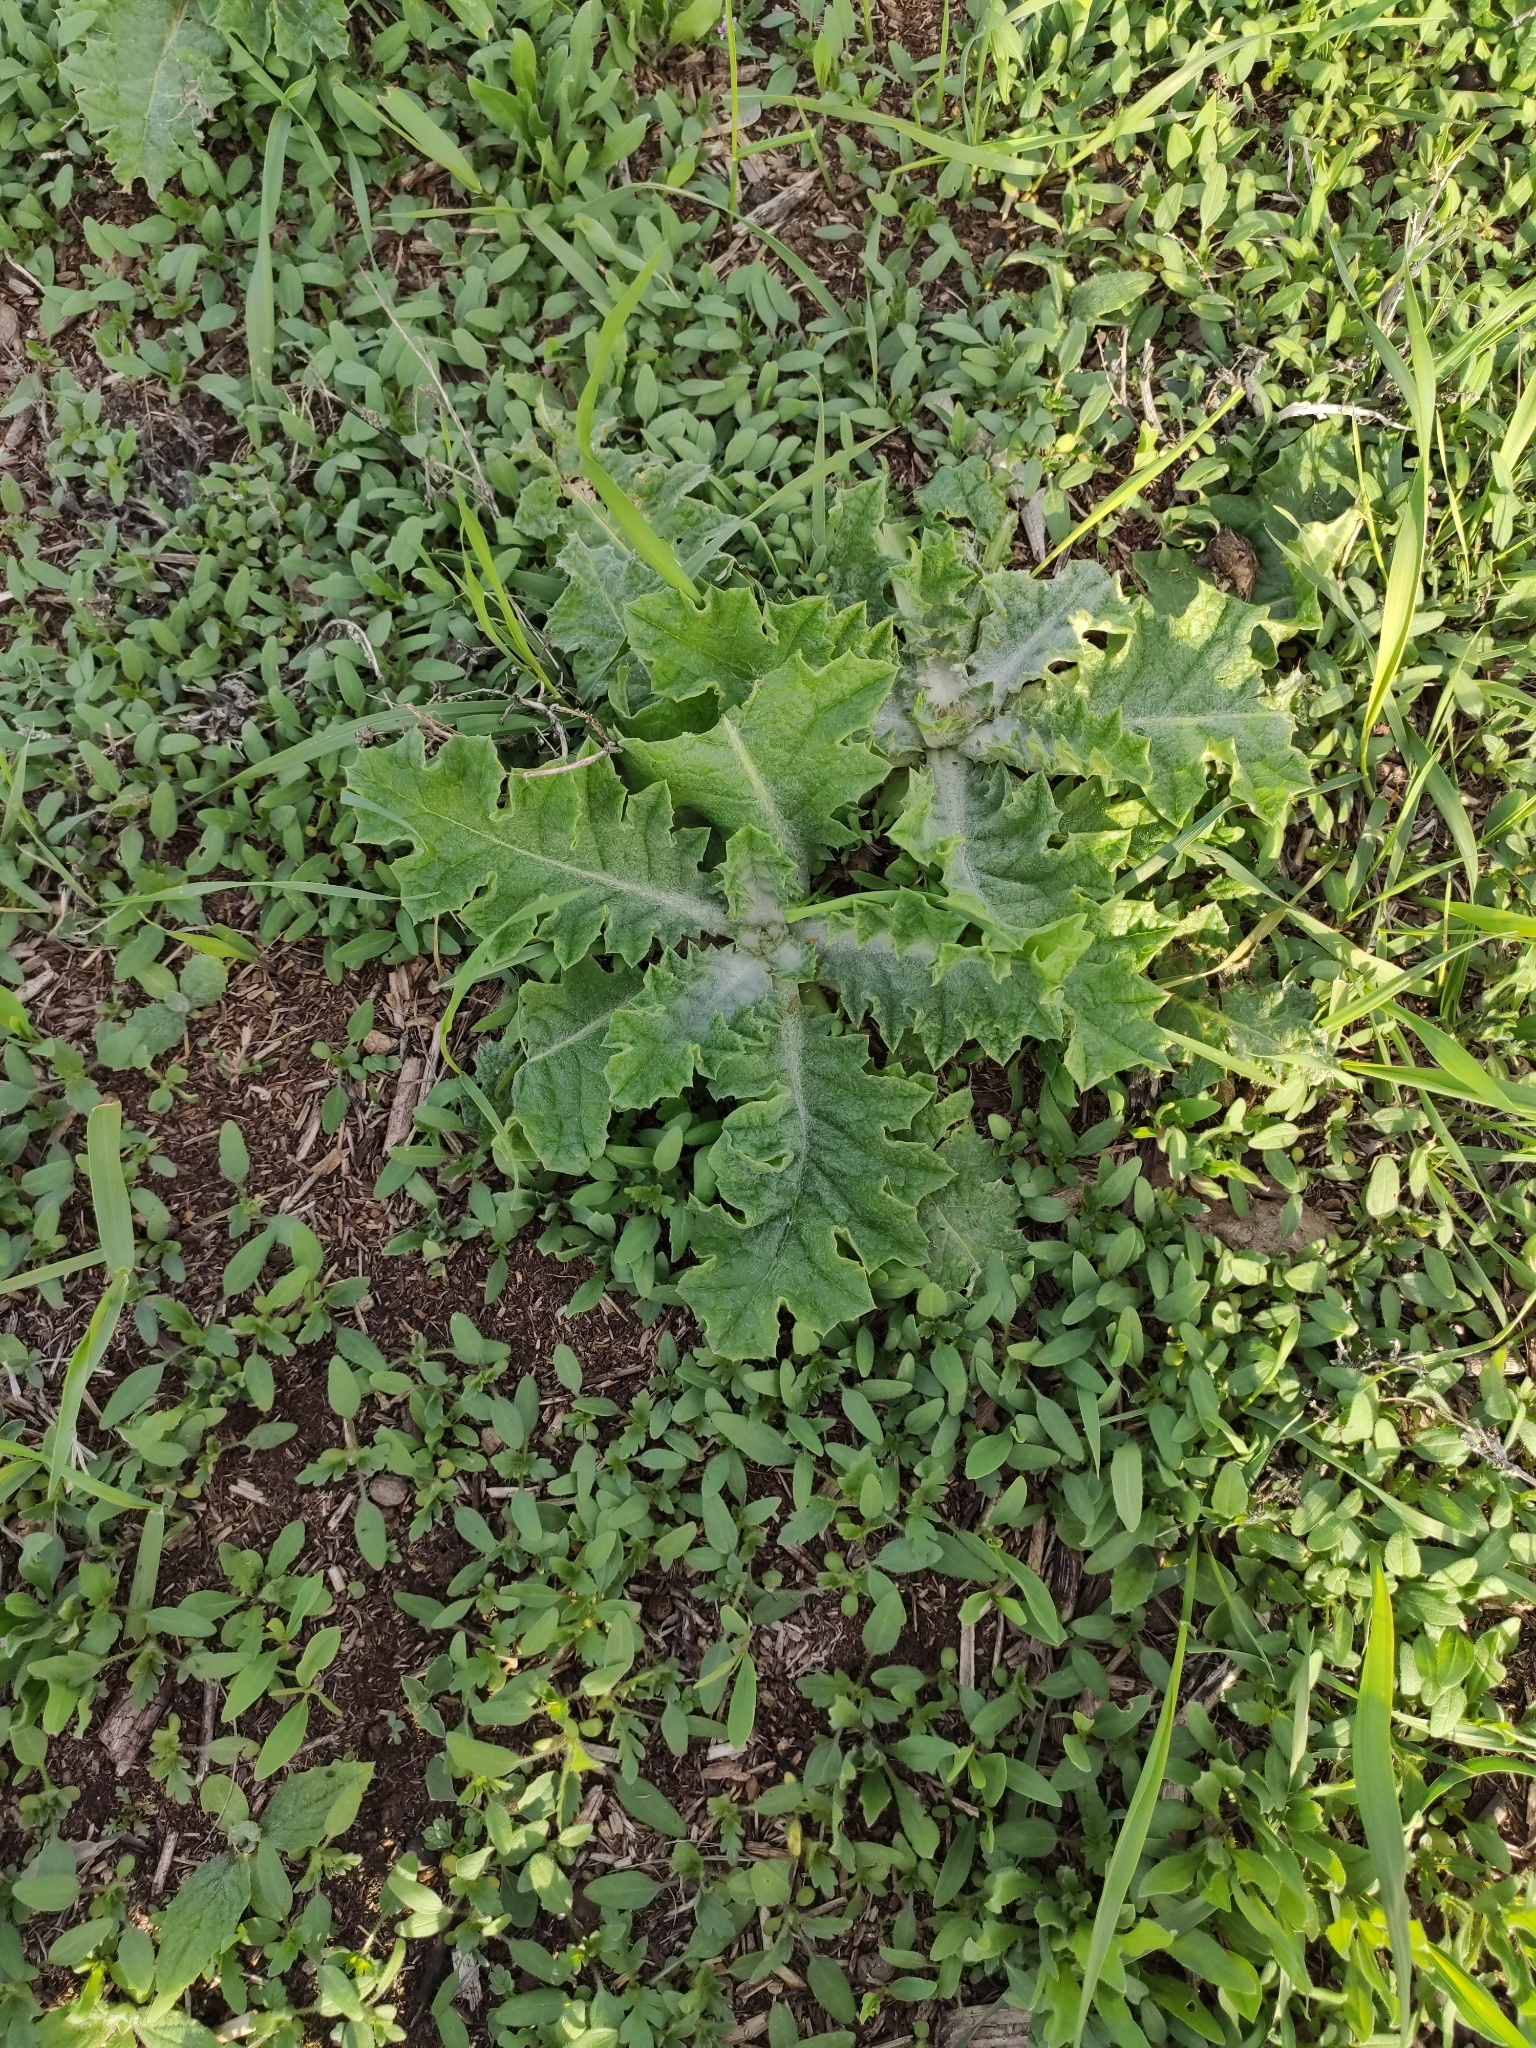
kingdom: Plantae
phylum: Tracheophyta
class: Magnoliopsida
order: Asterales
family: Asteraceae
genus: Onopordum
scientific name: Onopordum acanthium
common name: Scotch thistle
